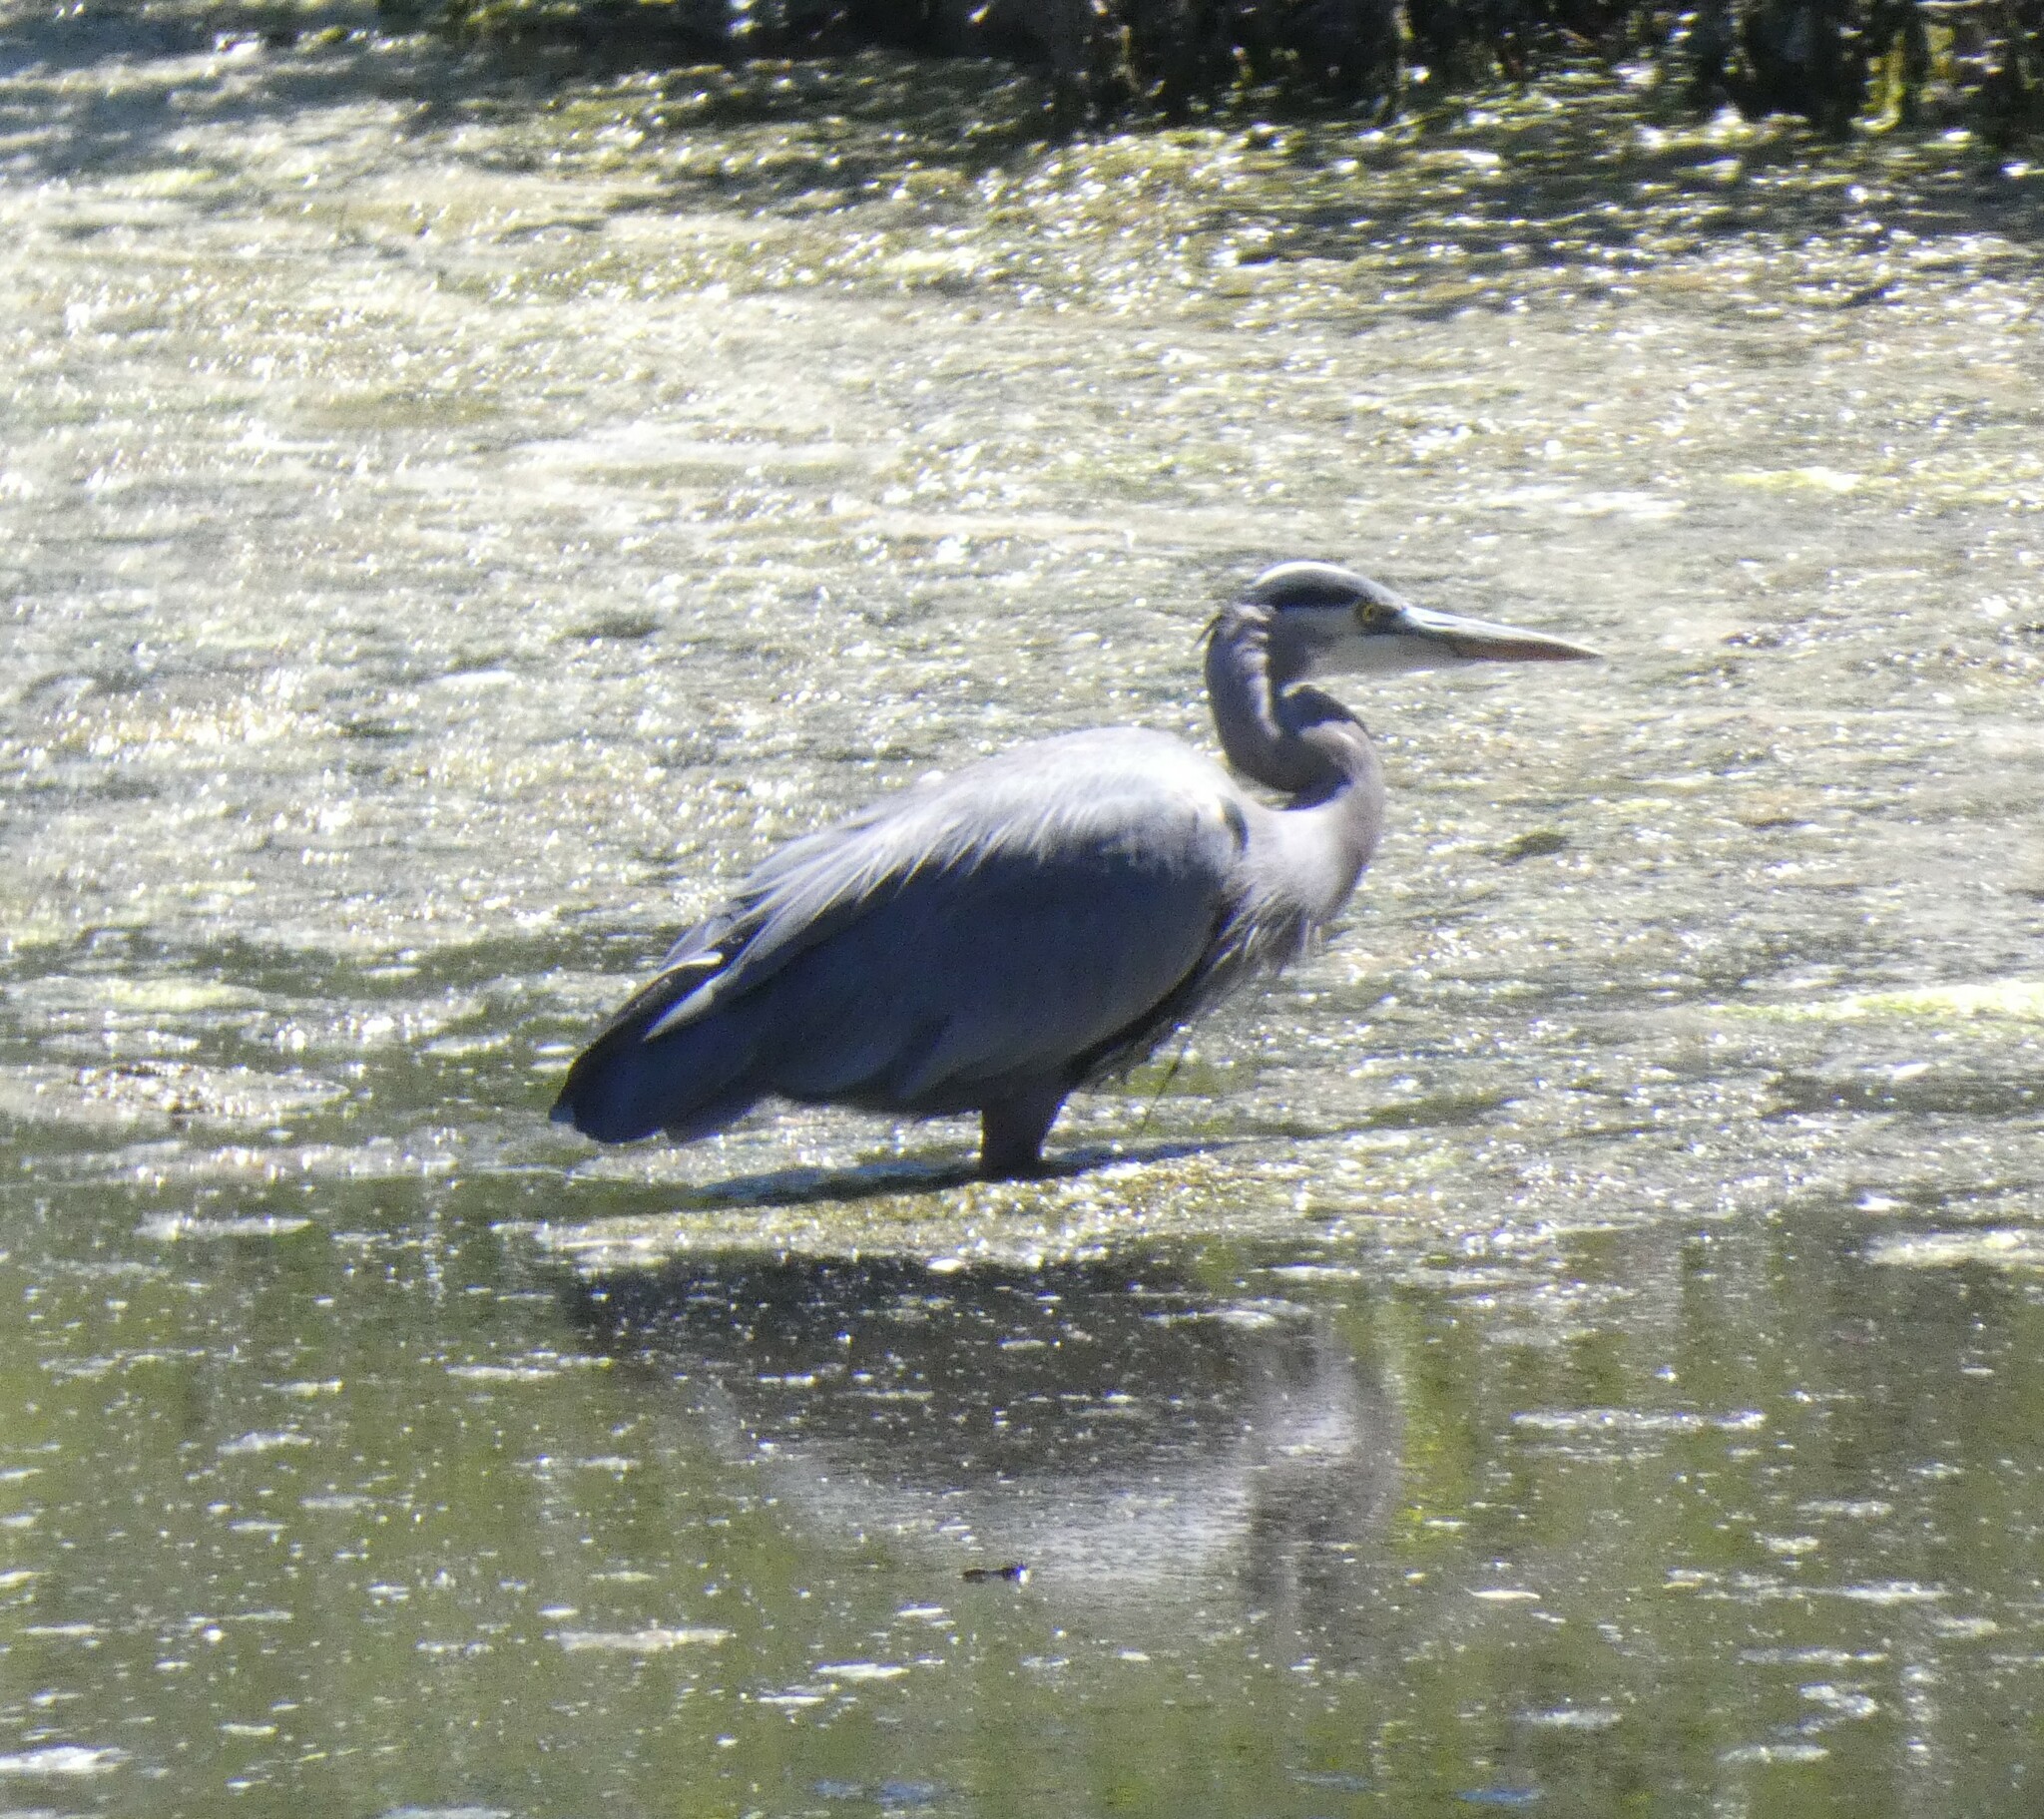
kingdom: Animalia
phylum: Chordata
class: Aves
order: Pelecaniformes
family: Ardeidae
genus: Ardea
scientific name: Ardea herodias
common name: Great blue heron
